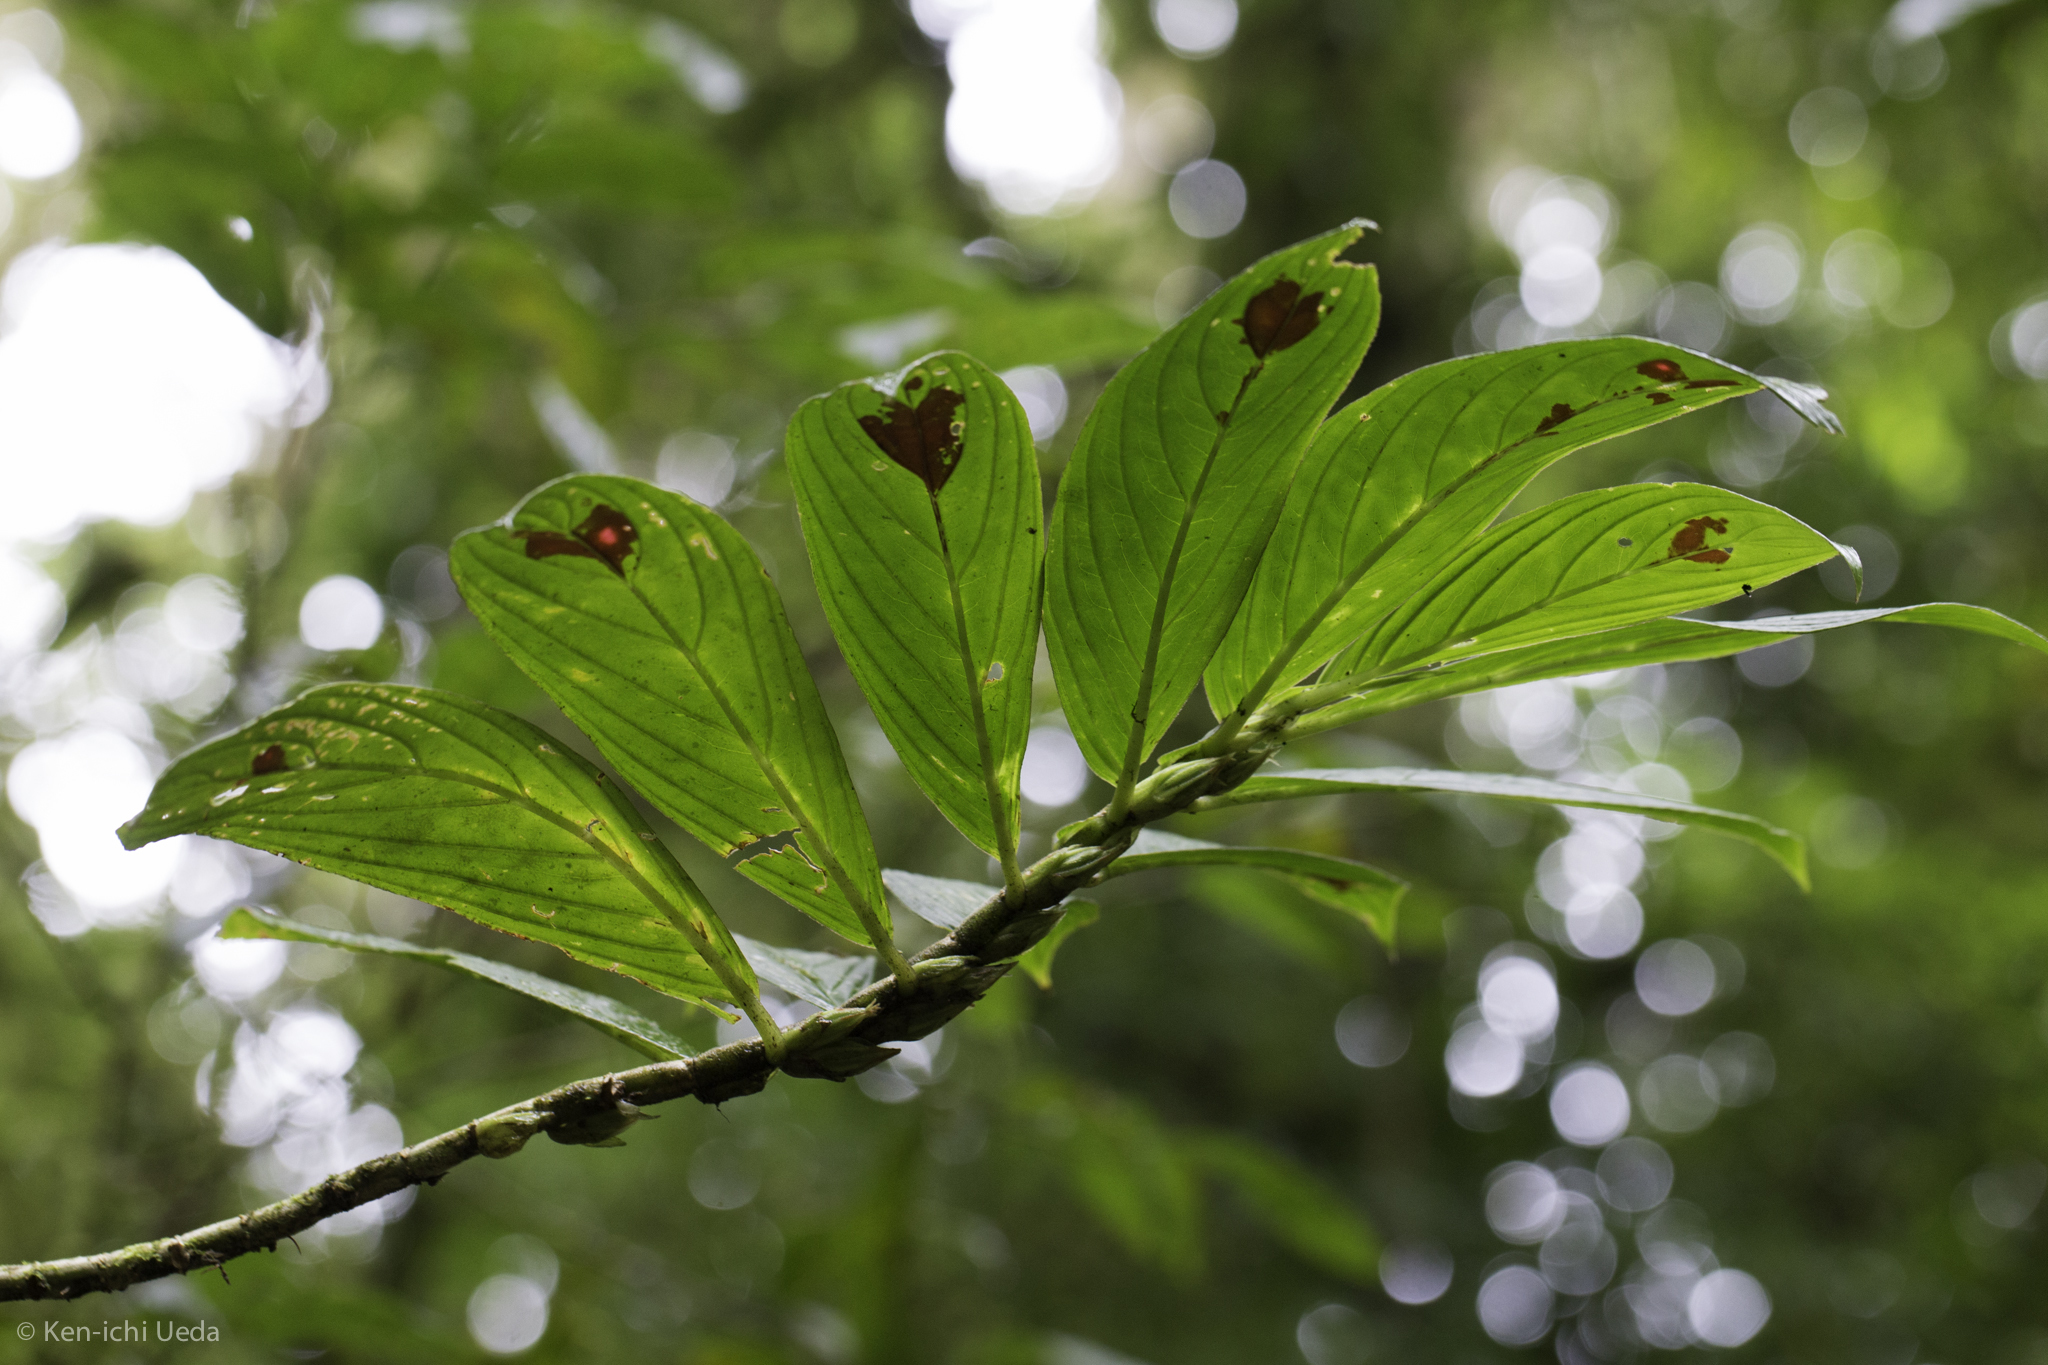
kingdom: Plantae
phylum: Tracheophyta
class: Magnoliopsida
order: Lamiales
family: Gesneriaceae
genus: Columnea
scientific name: Columnea consanguinea
